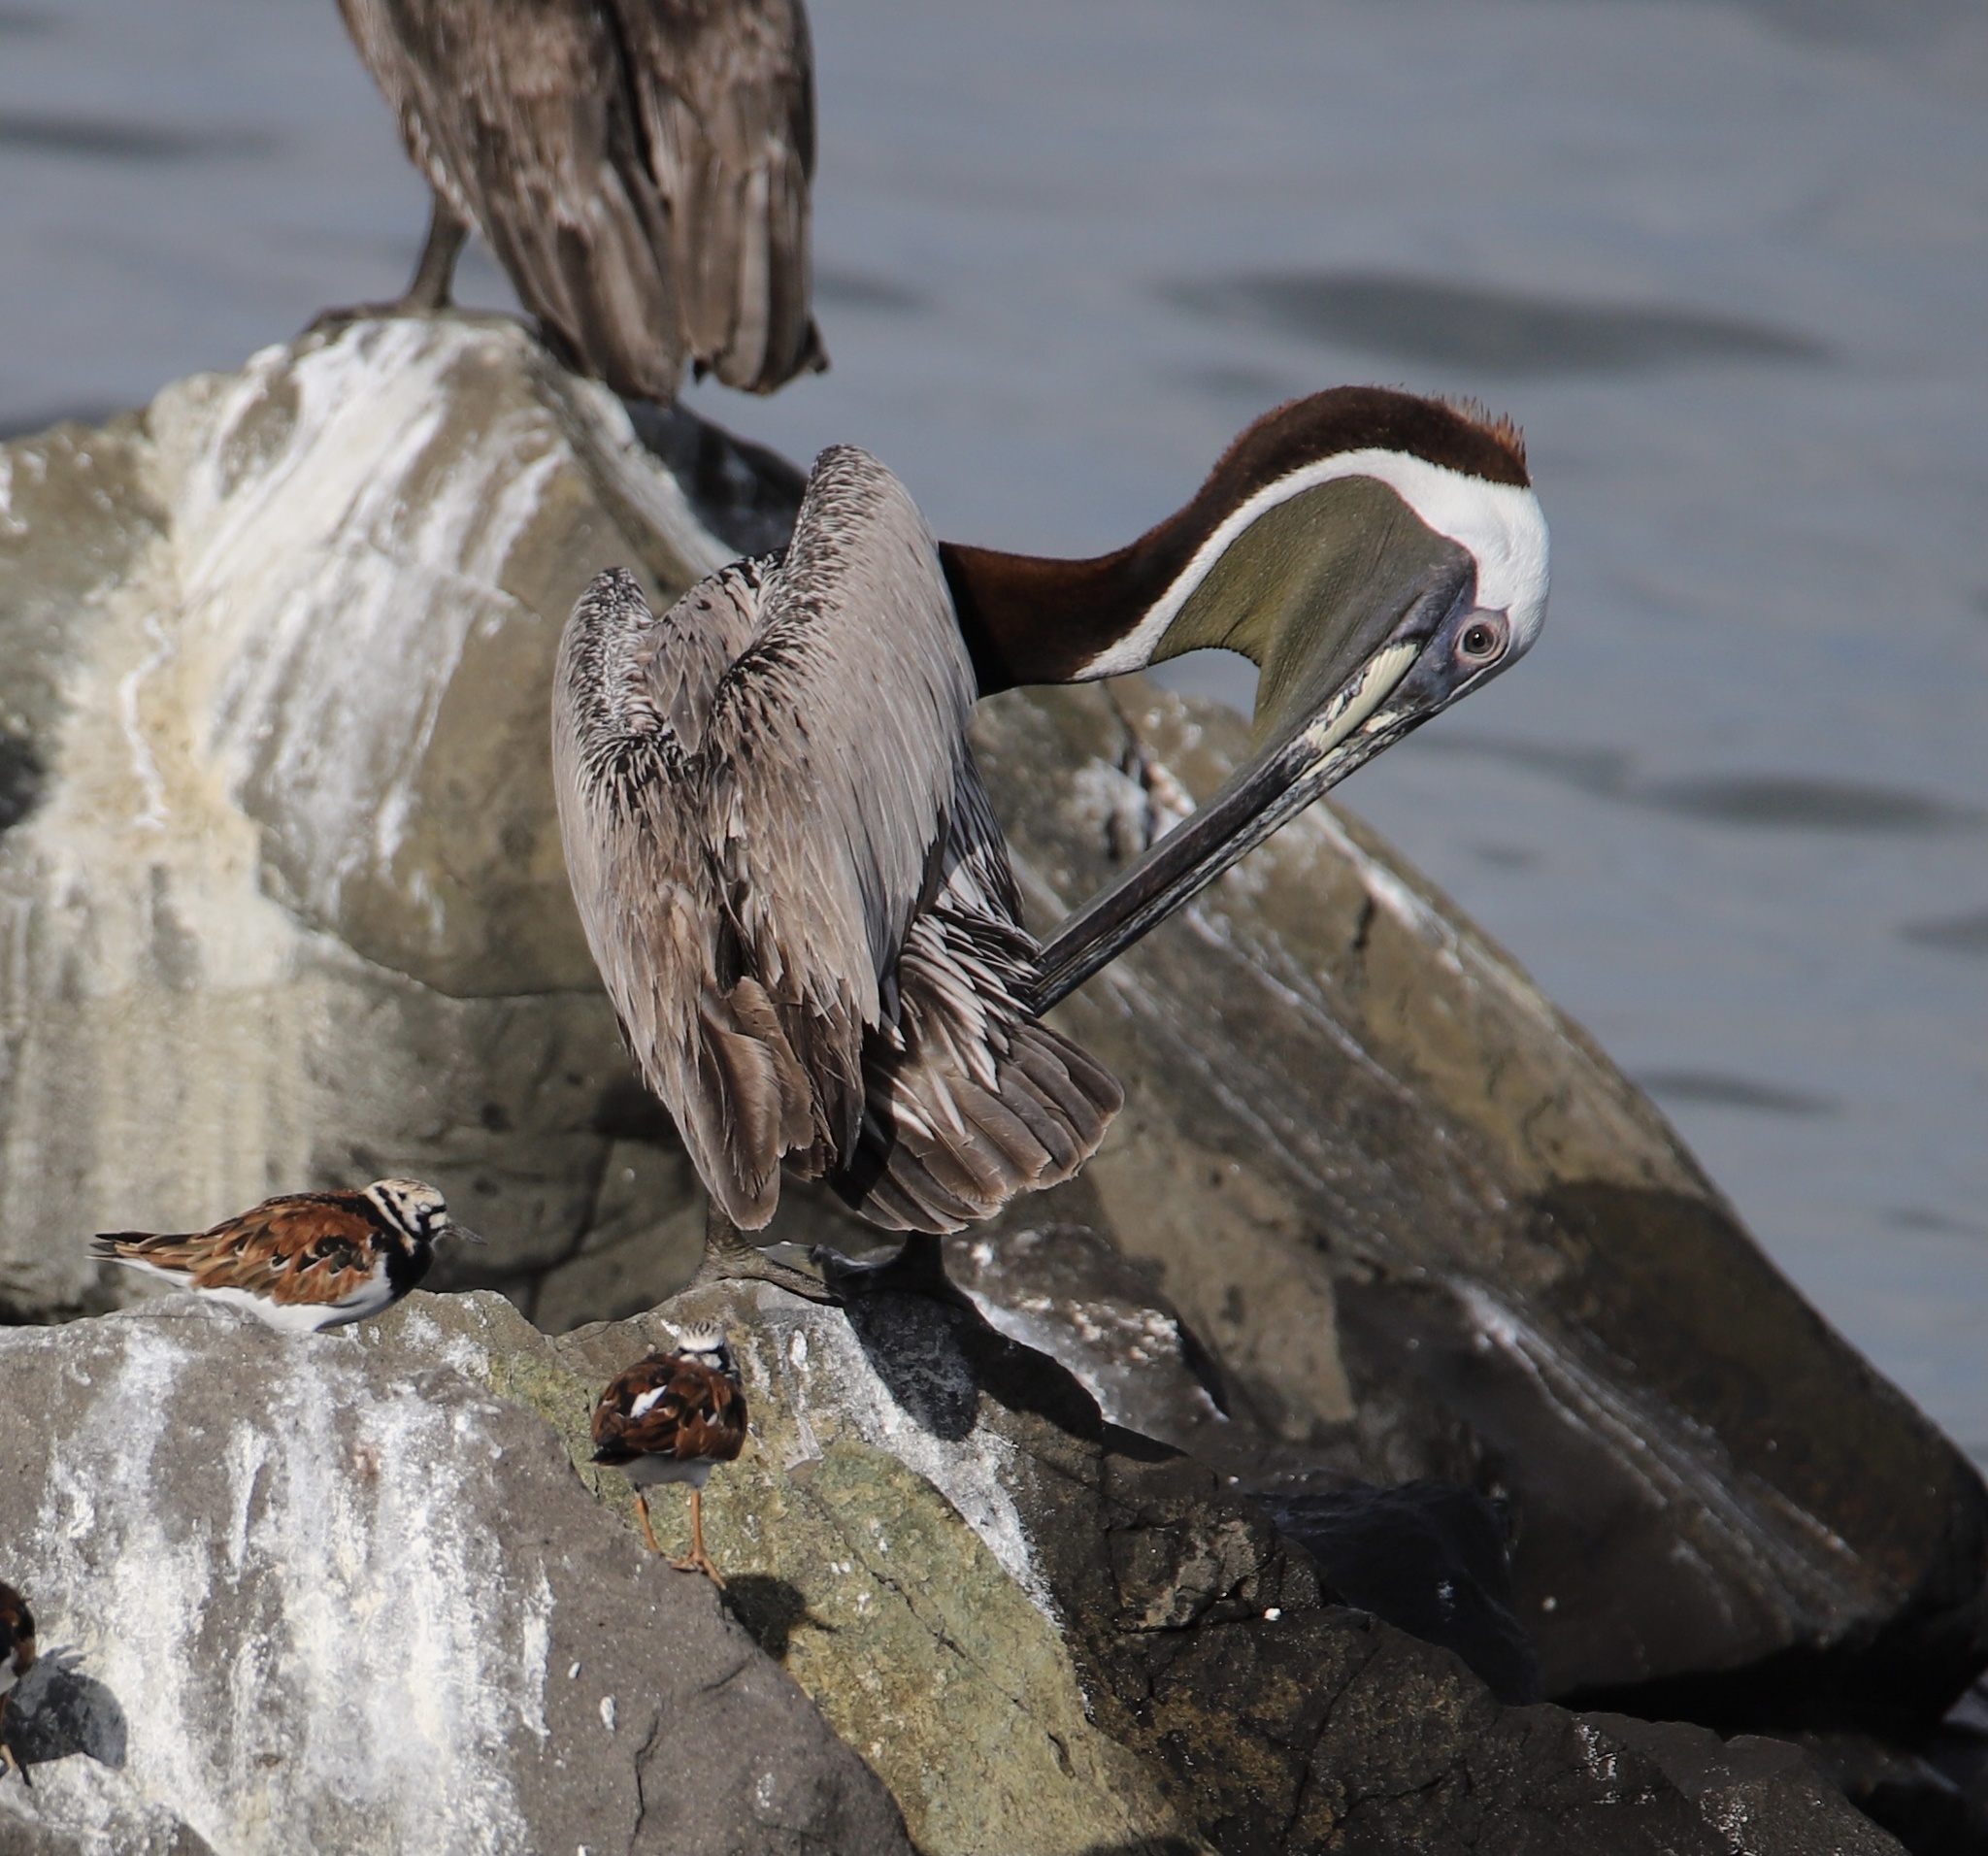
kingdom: Animalia
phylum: Chordata
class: Aves
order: Pelecaniformes
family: Pelecanidae
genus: Pelecanus
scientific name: Pelecanus occidentalis
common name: Brown pelican
